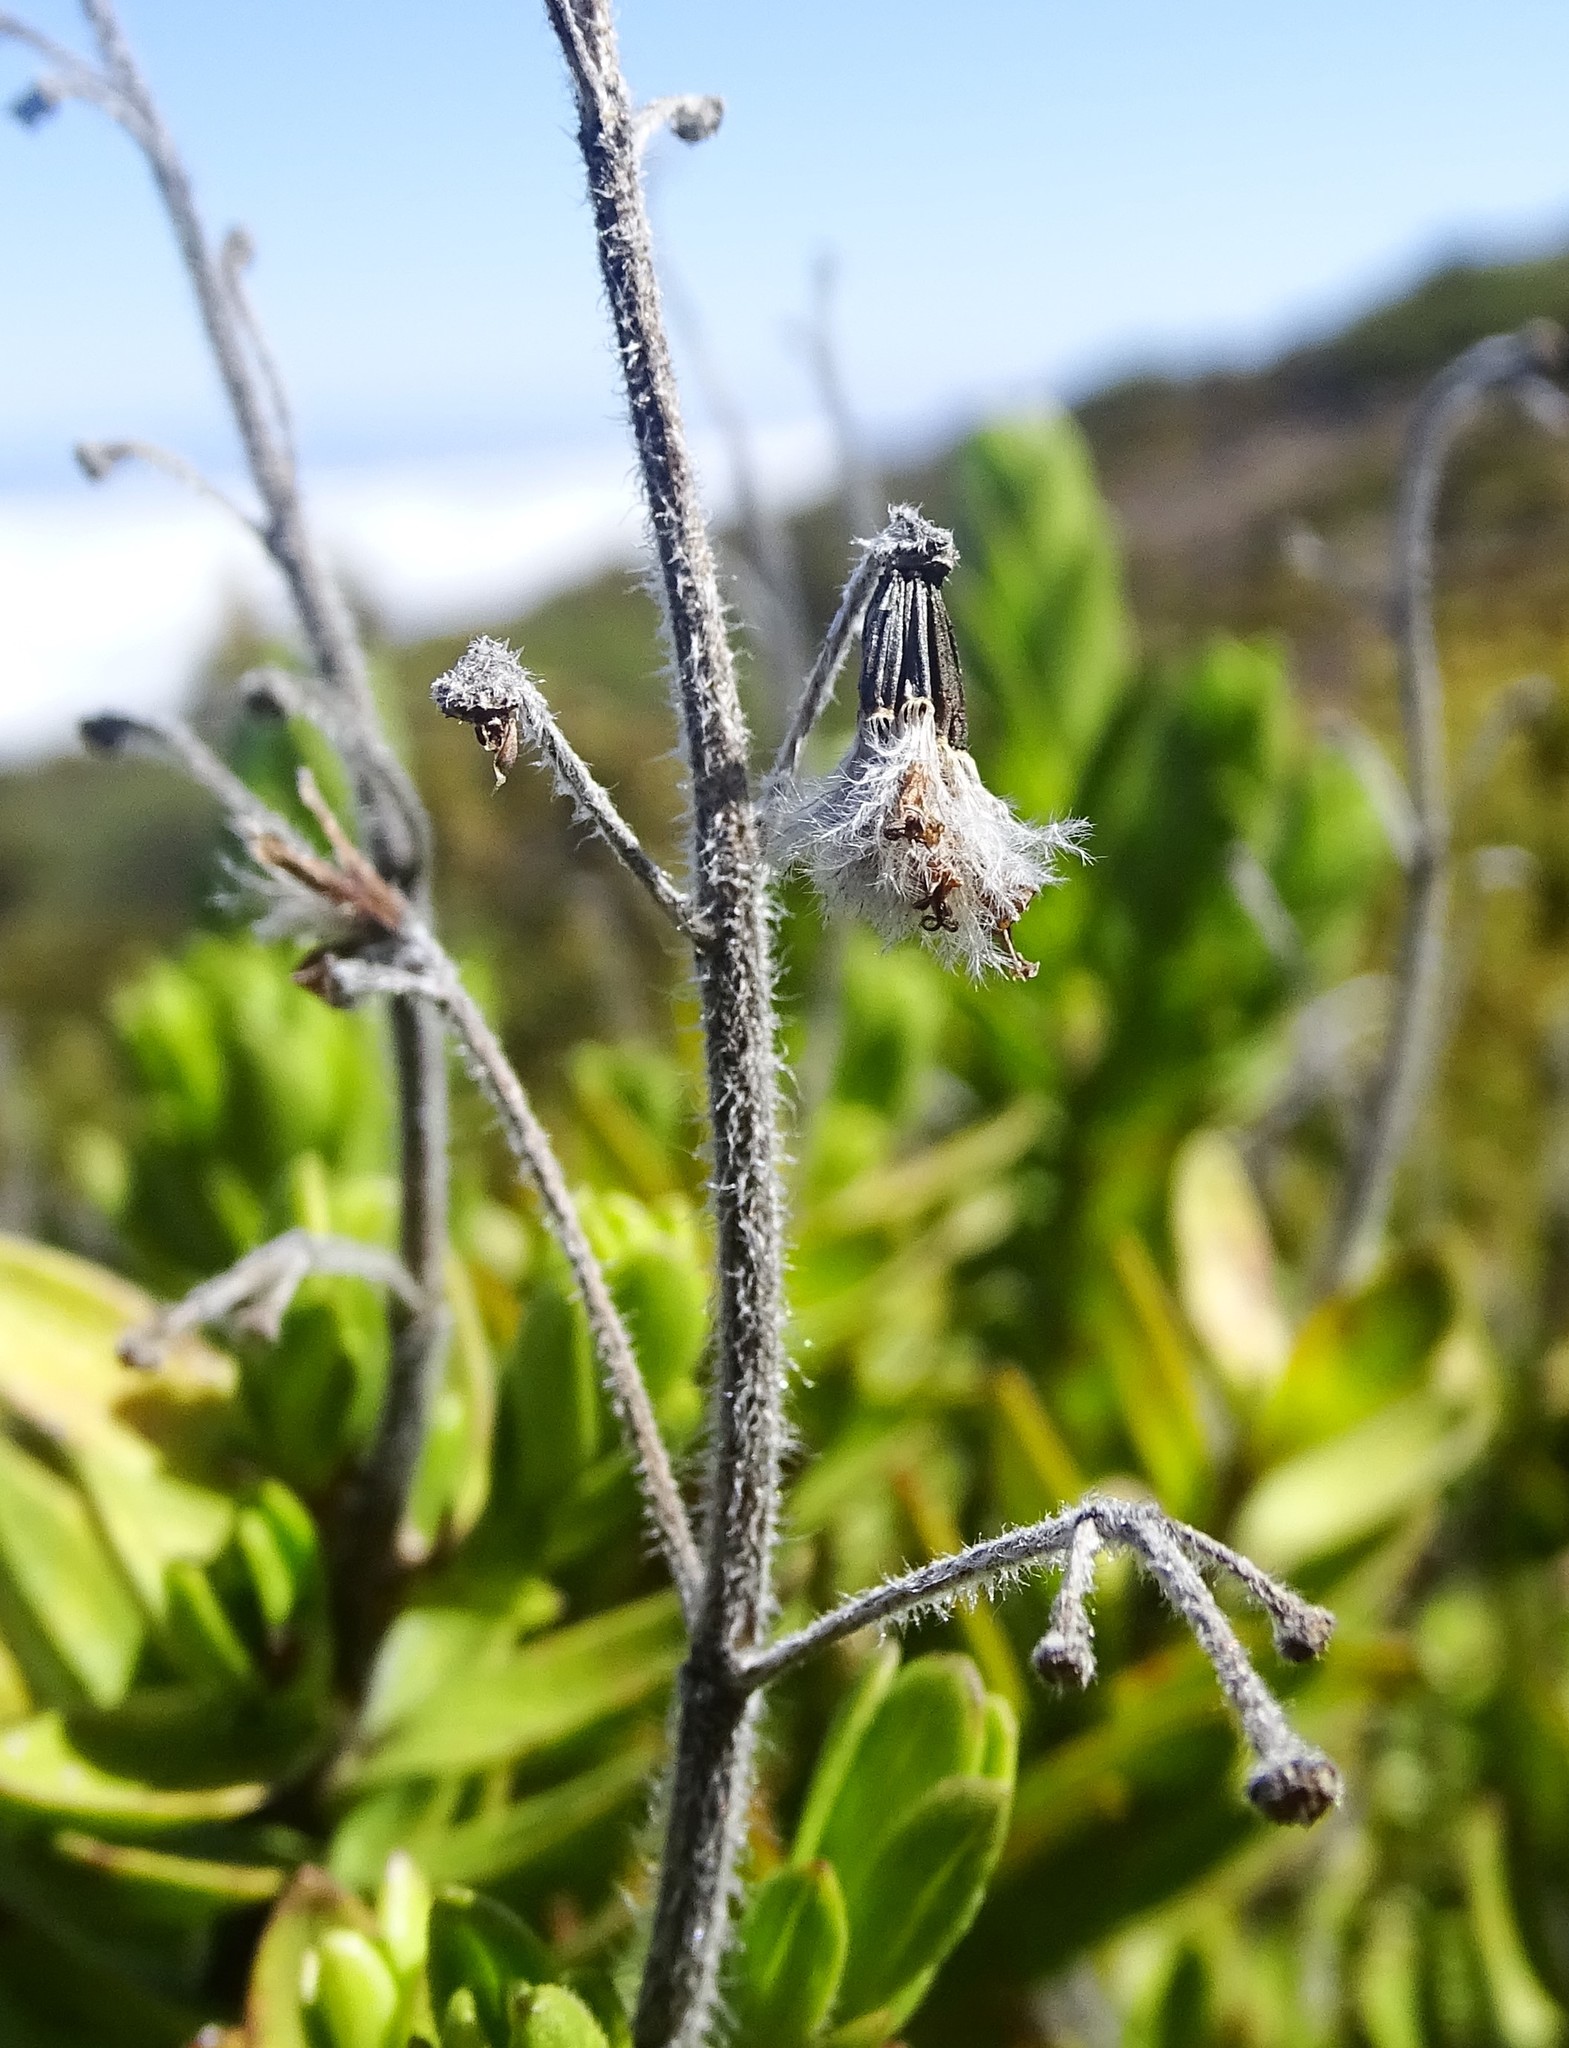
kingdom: Plantae
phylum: Tracheophyta
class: Magnoliopsida
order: Asterales
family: Asteraceae
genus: Dubautia
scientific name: Dubautia menziesii
